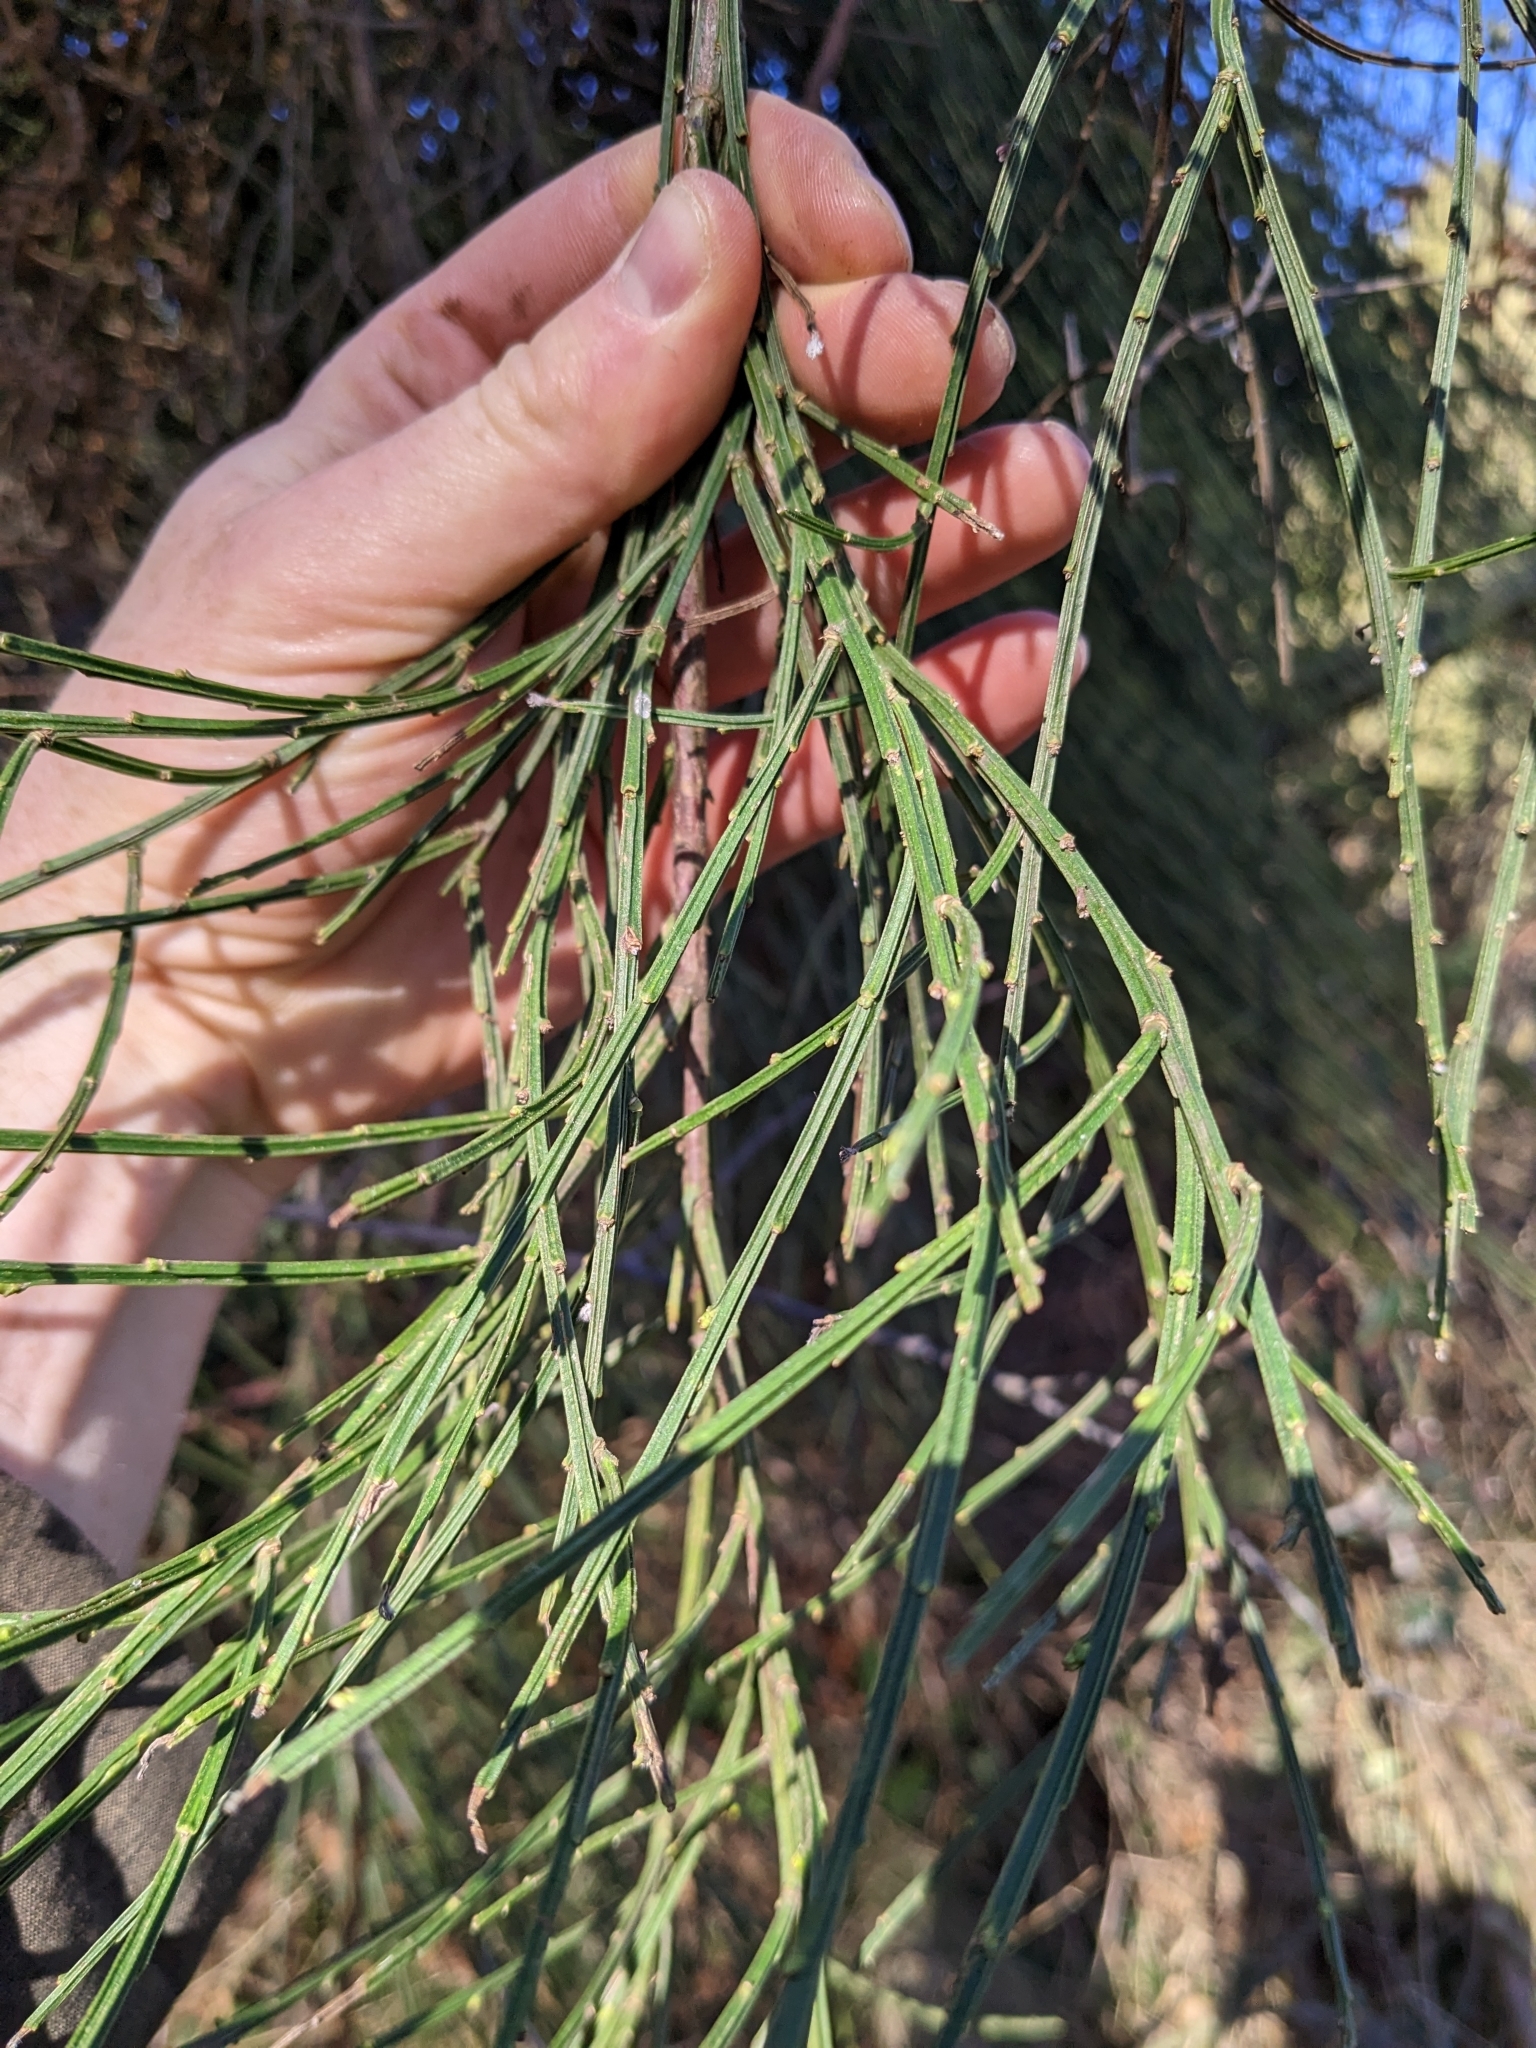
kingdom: Plantae
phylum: Tracheophyta
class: Magnoliopsida
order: Fabales
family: Fabaceae
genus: Cytisus
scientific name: Cytisus scoparius
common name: Scotch broom
